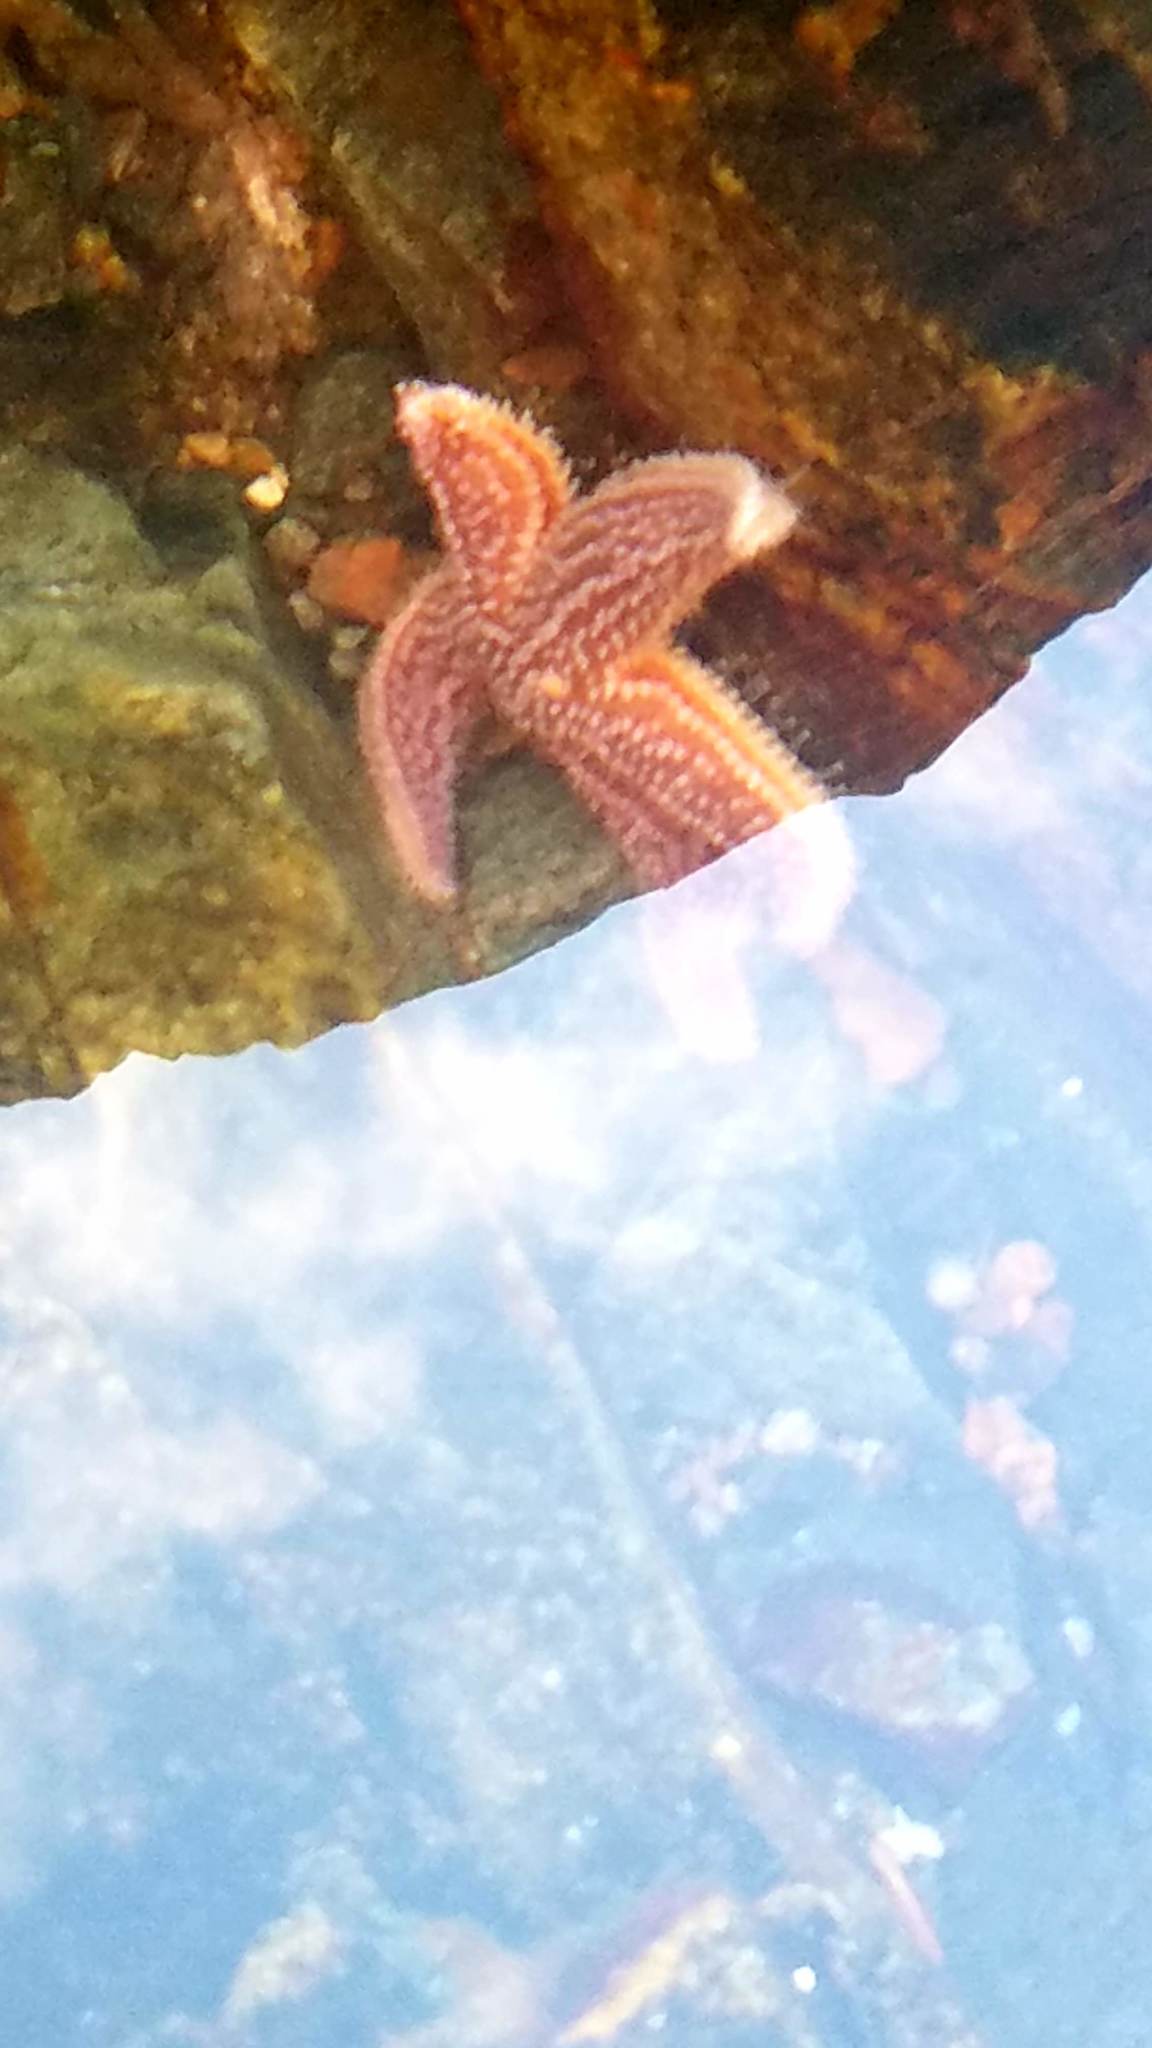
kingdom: Animalia
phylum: Echinodermata
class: Asteroidea
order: Forcipulatida
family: Asteriidae
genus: Asterias
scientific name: Asterias rubens
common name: Common starfish
